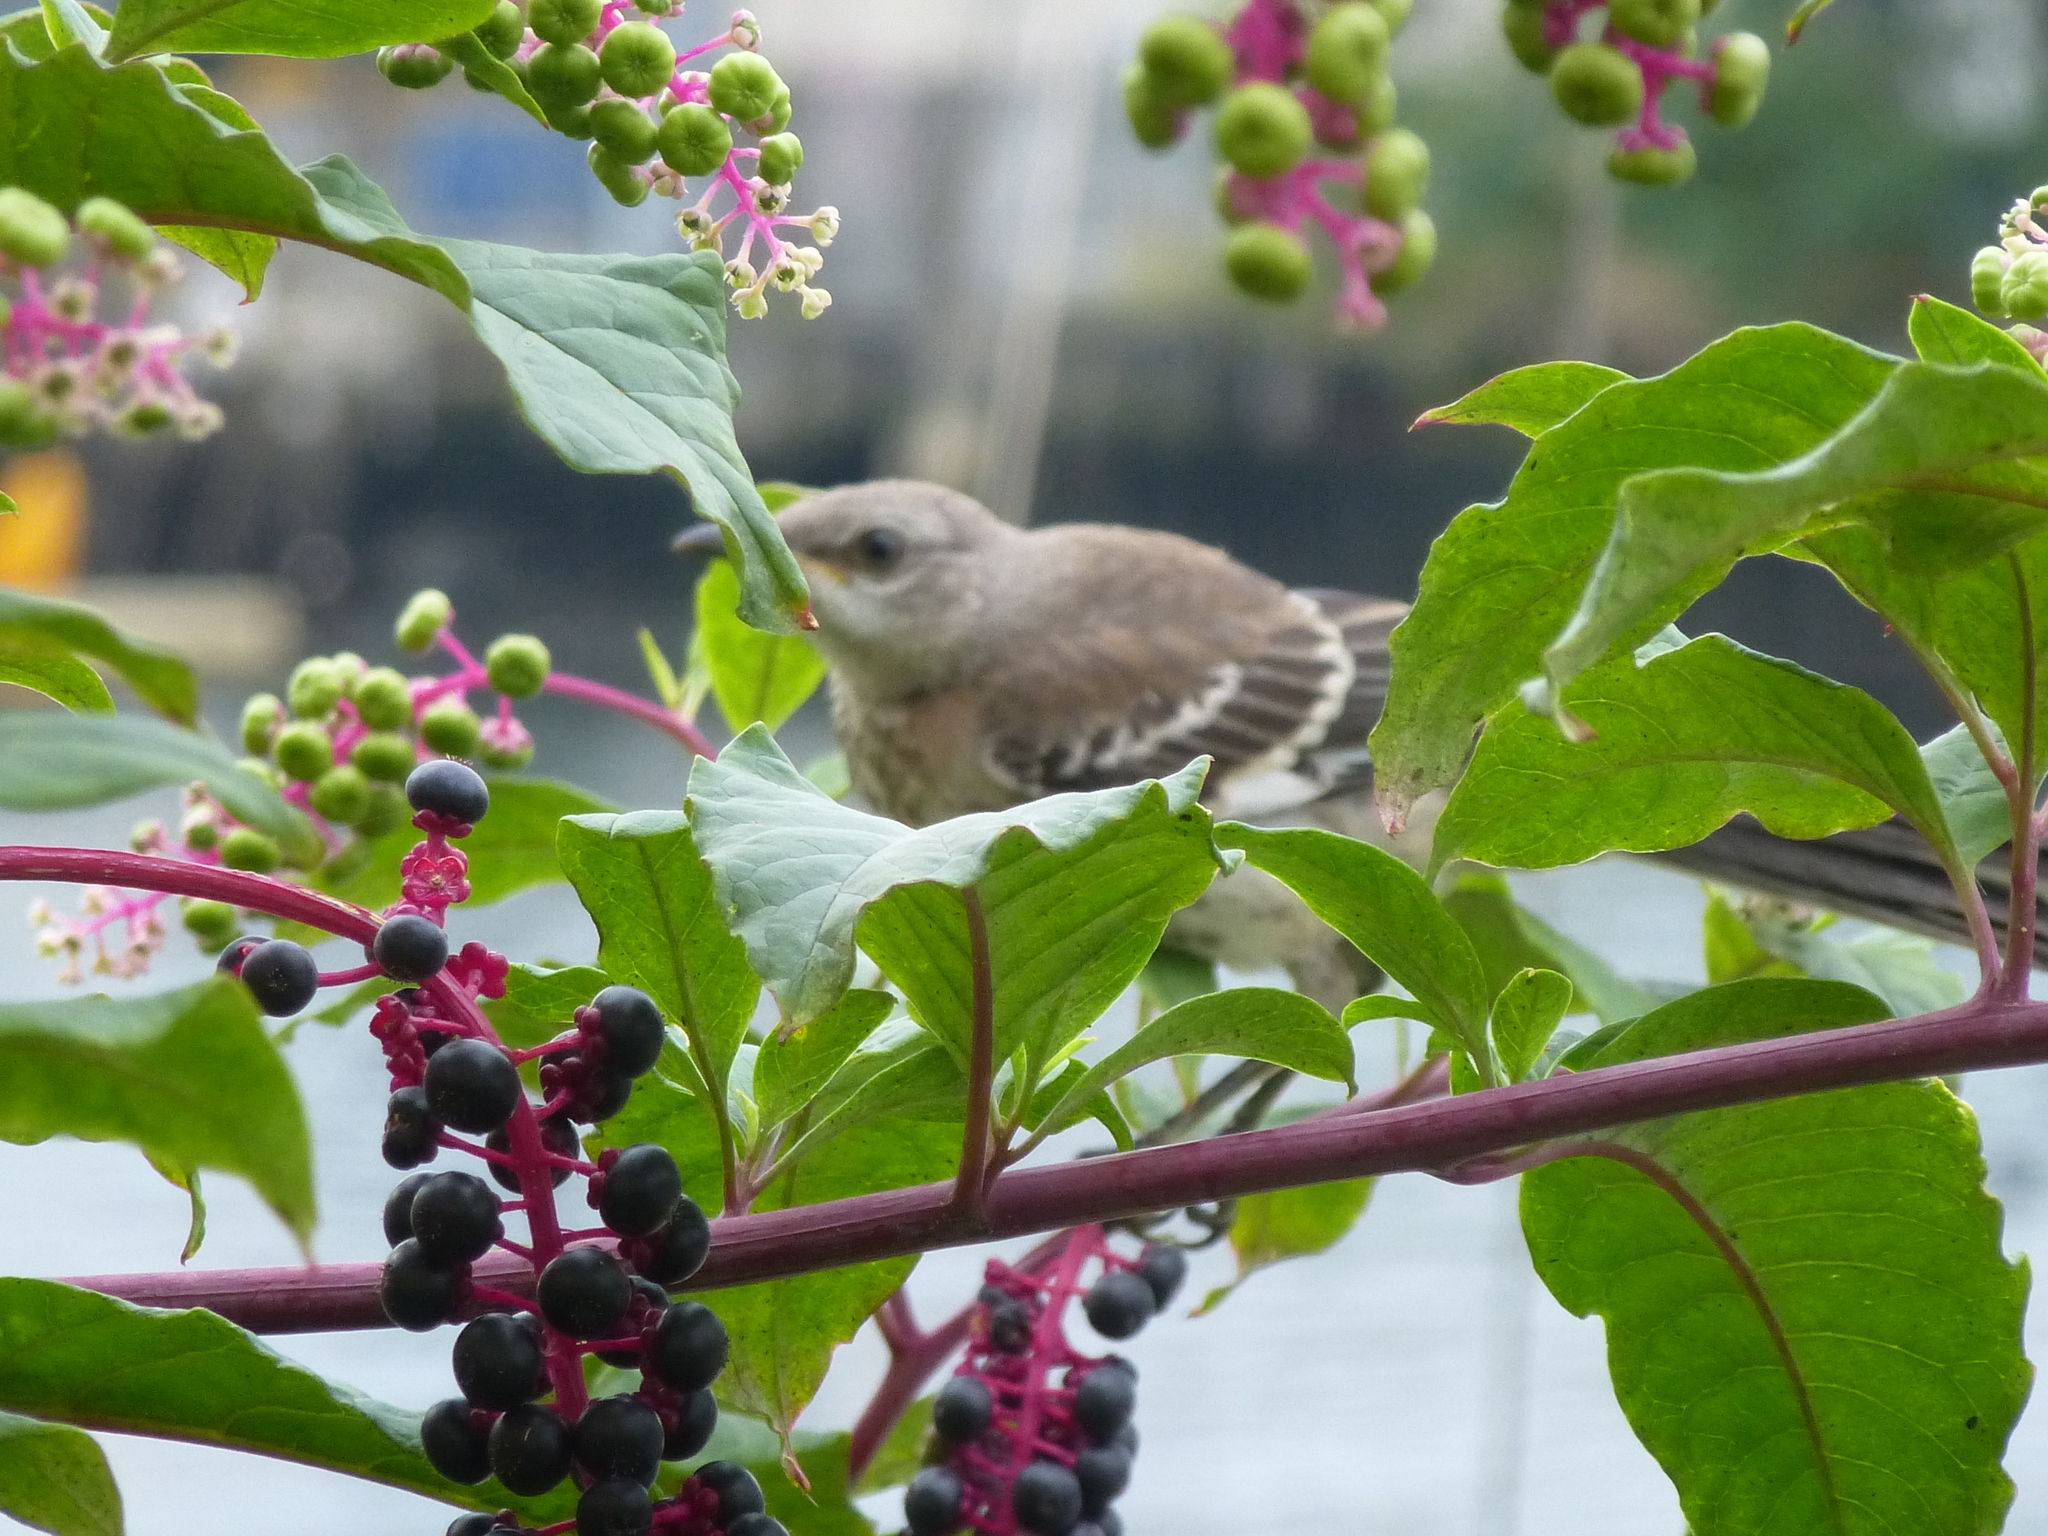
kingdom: Animalia
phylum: Chordata
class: Aves
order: Passeriformes
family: Mimidae
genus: Mimus
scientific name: Mimus polyglottos
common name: Northern mockingbird
